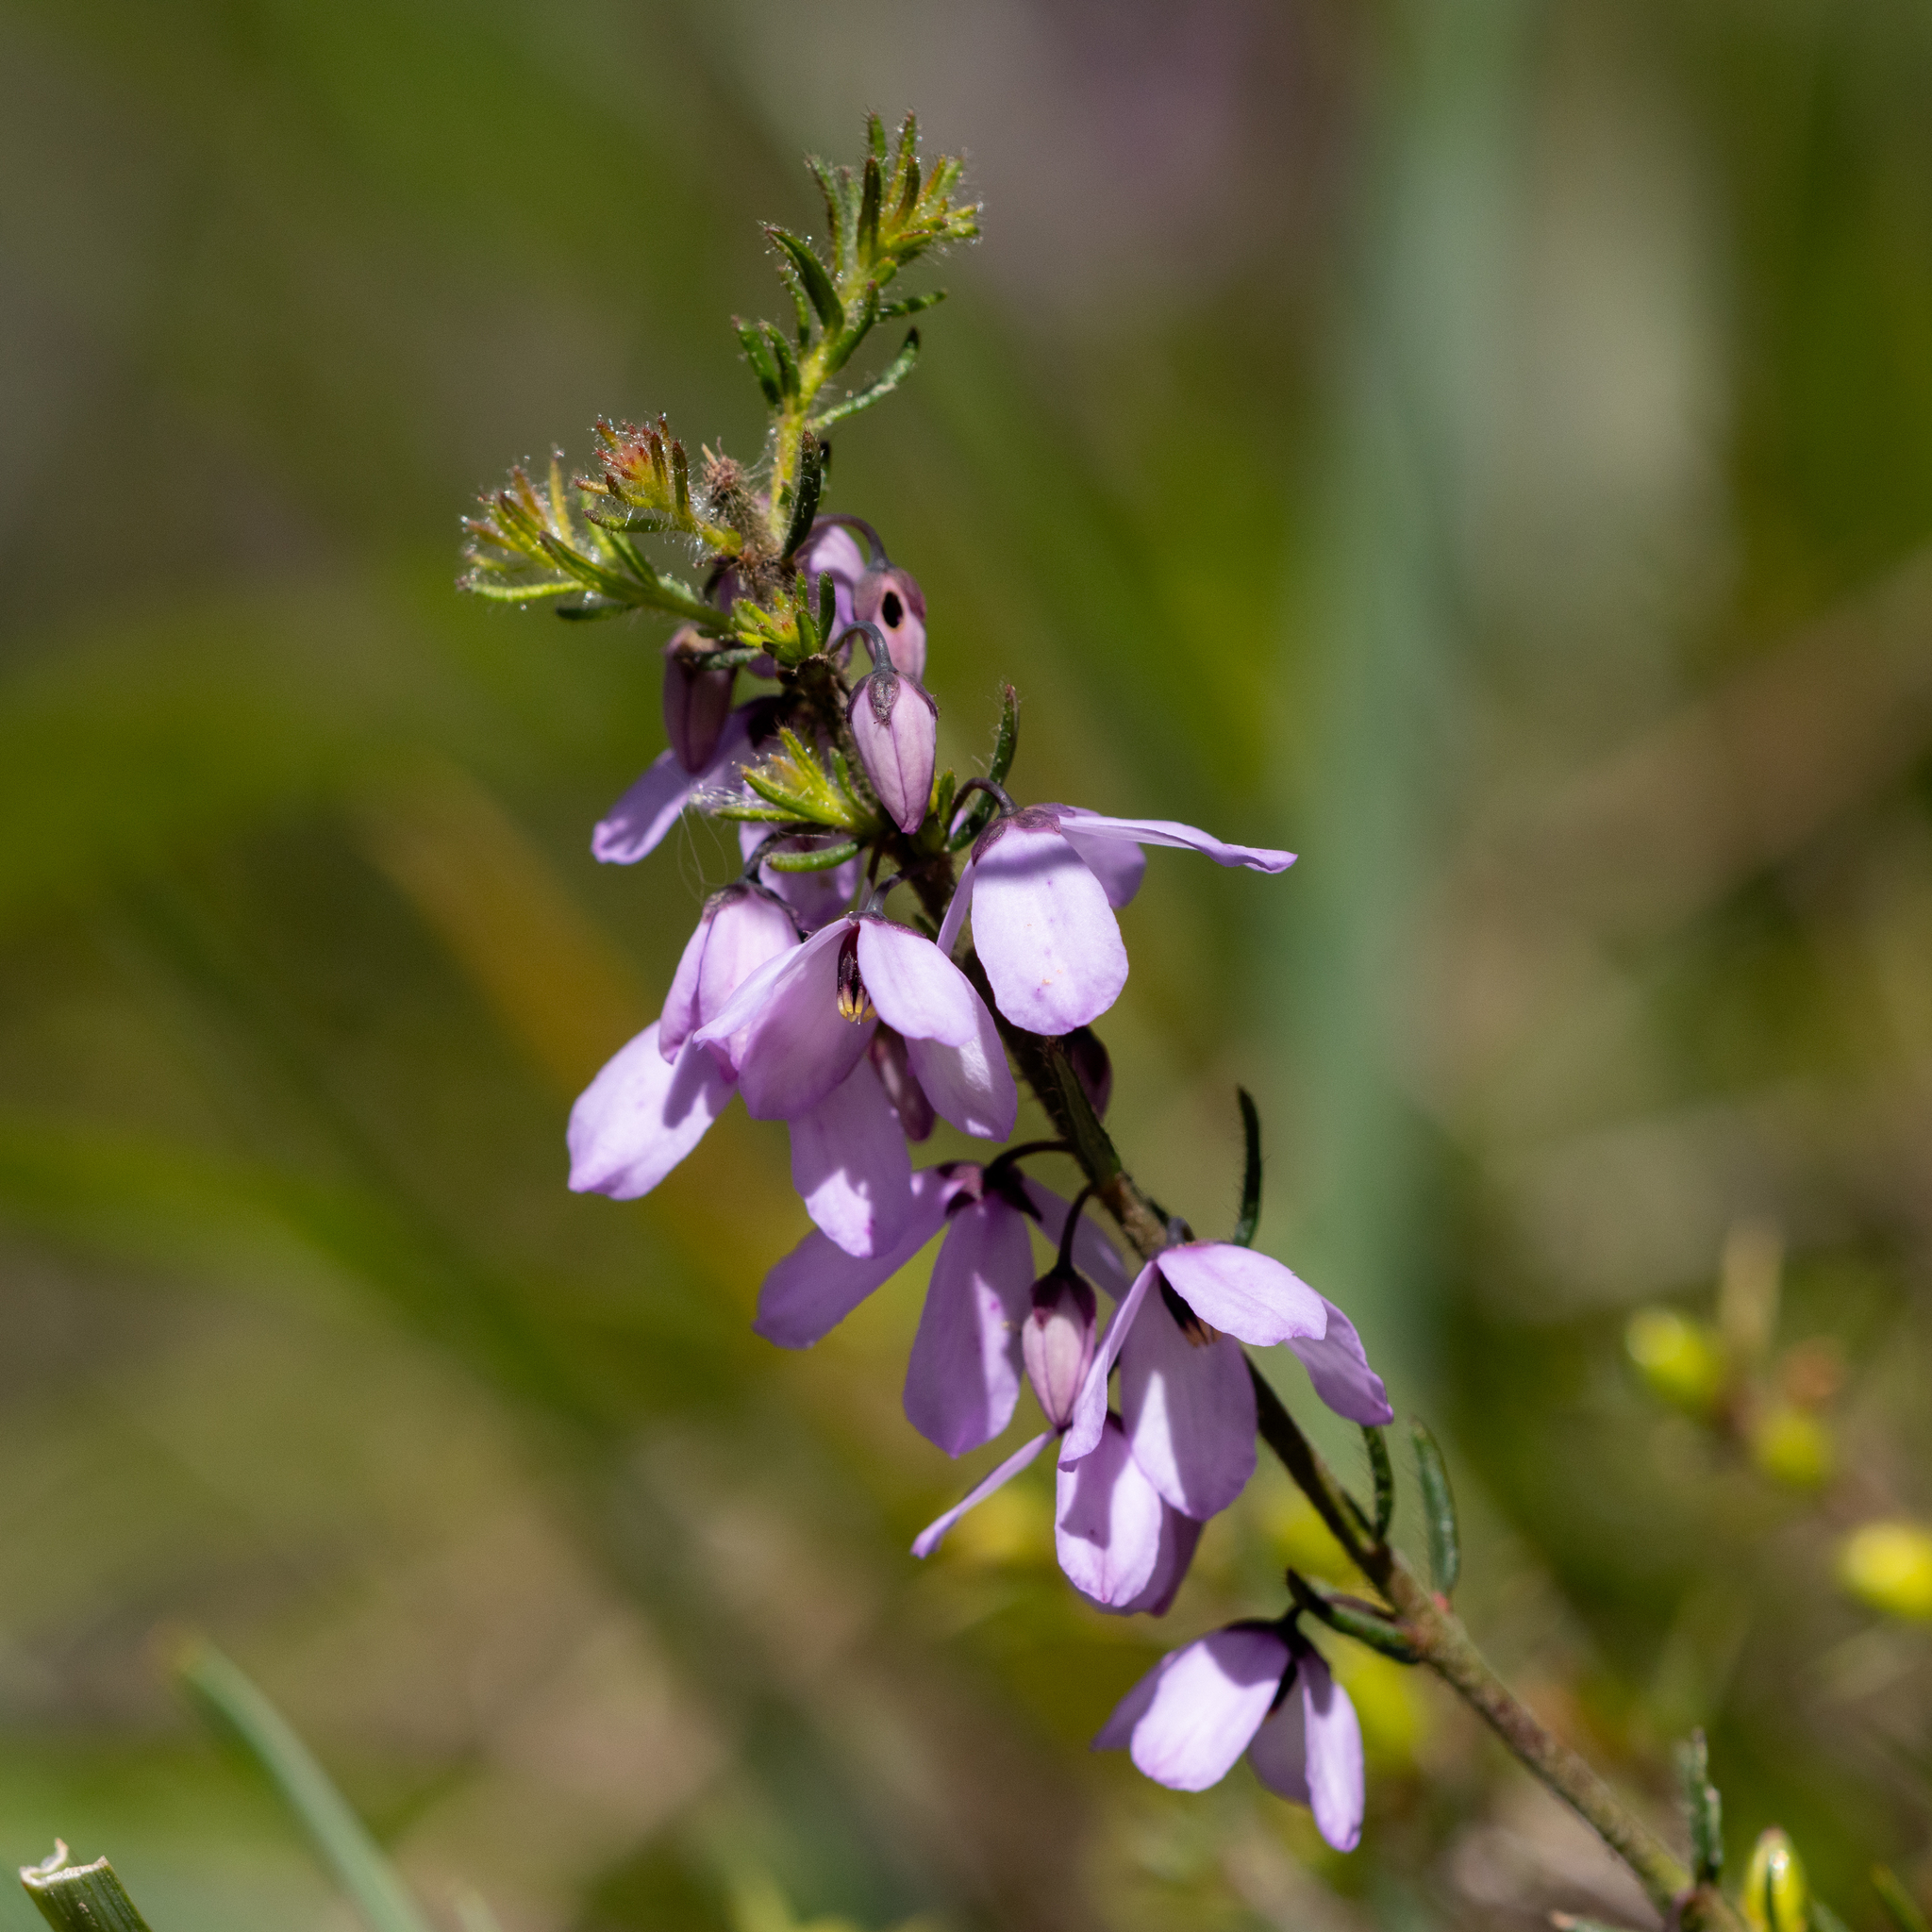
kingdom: Plantae
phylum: Tracheophyta
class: Magnoliopsida
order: Oxalidales
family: Elaeocarpaceae
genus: Tetratheca
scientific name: Tetratheca pilosa
